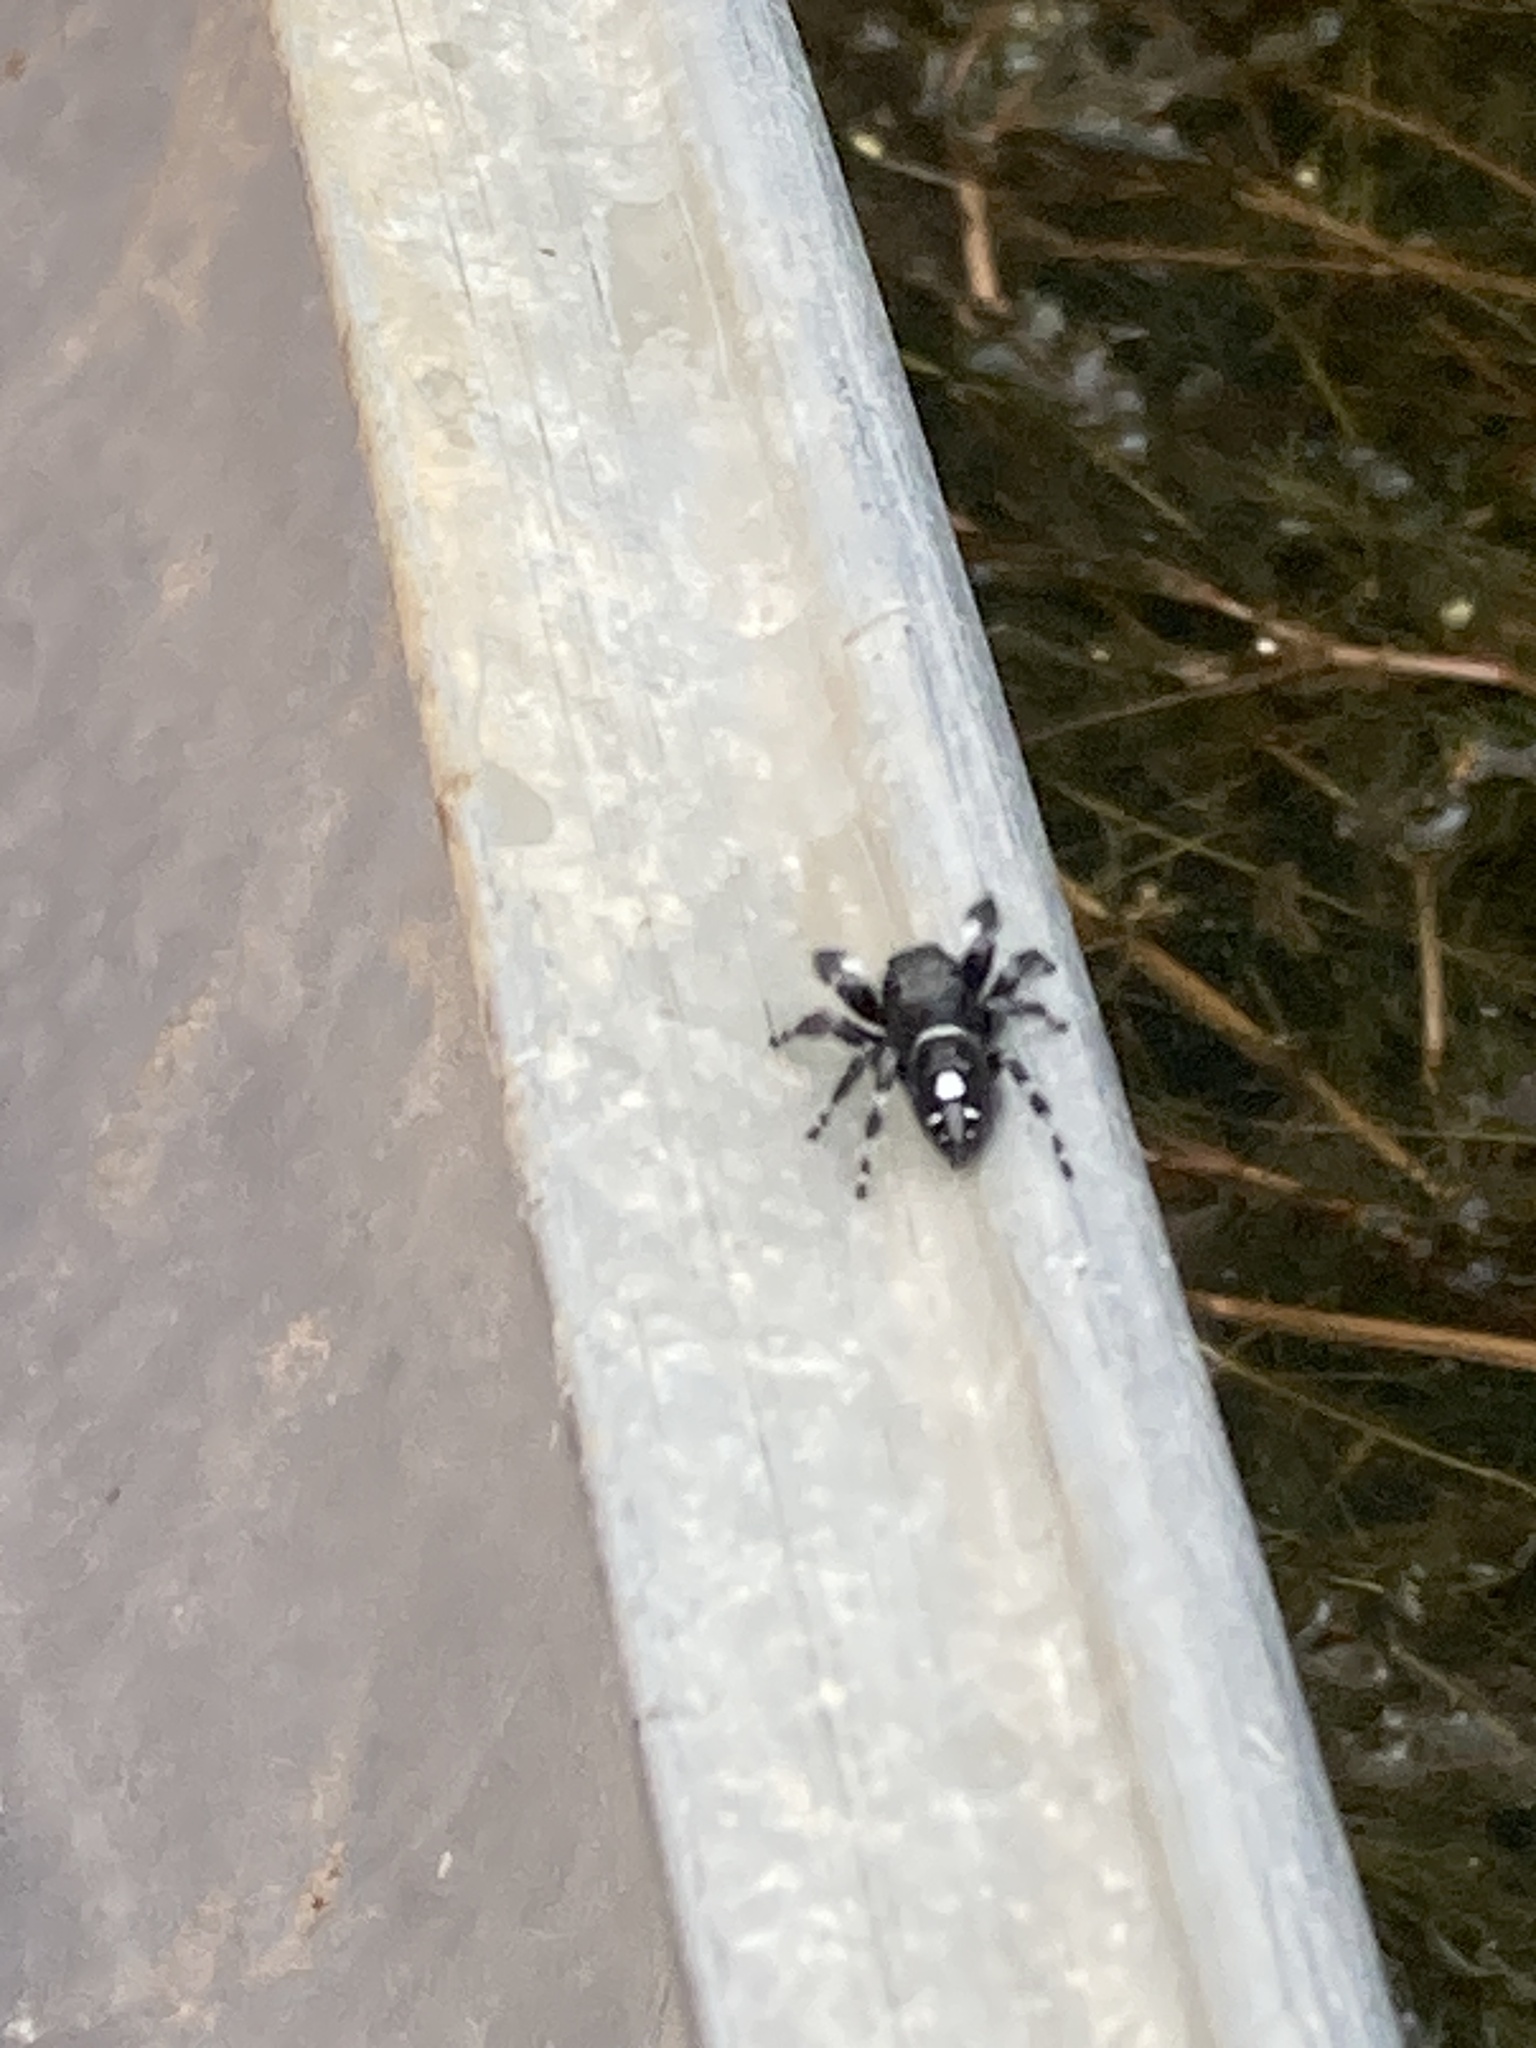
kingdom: Animalia
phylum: Arthropoda
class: Arachnida
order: Araneae
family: Salticidae
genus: Phidippus
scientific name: Phidippus audax
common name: Bold jumper
